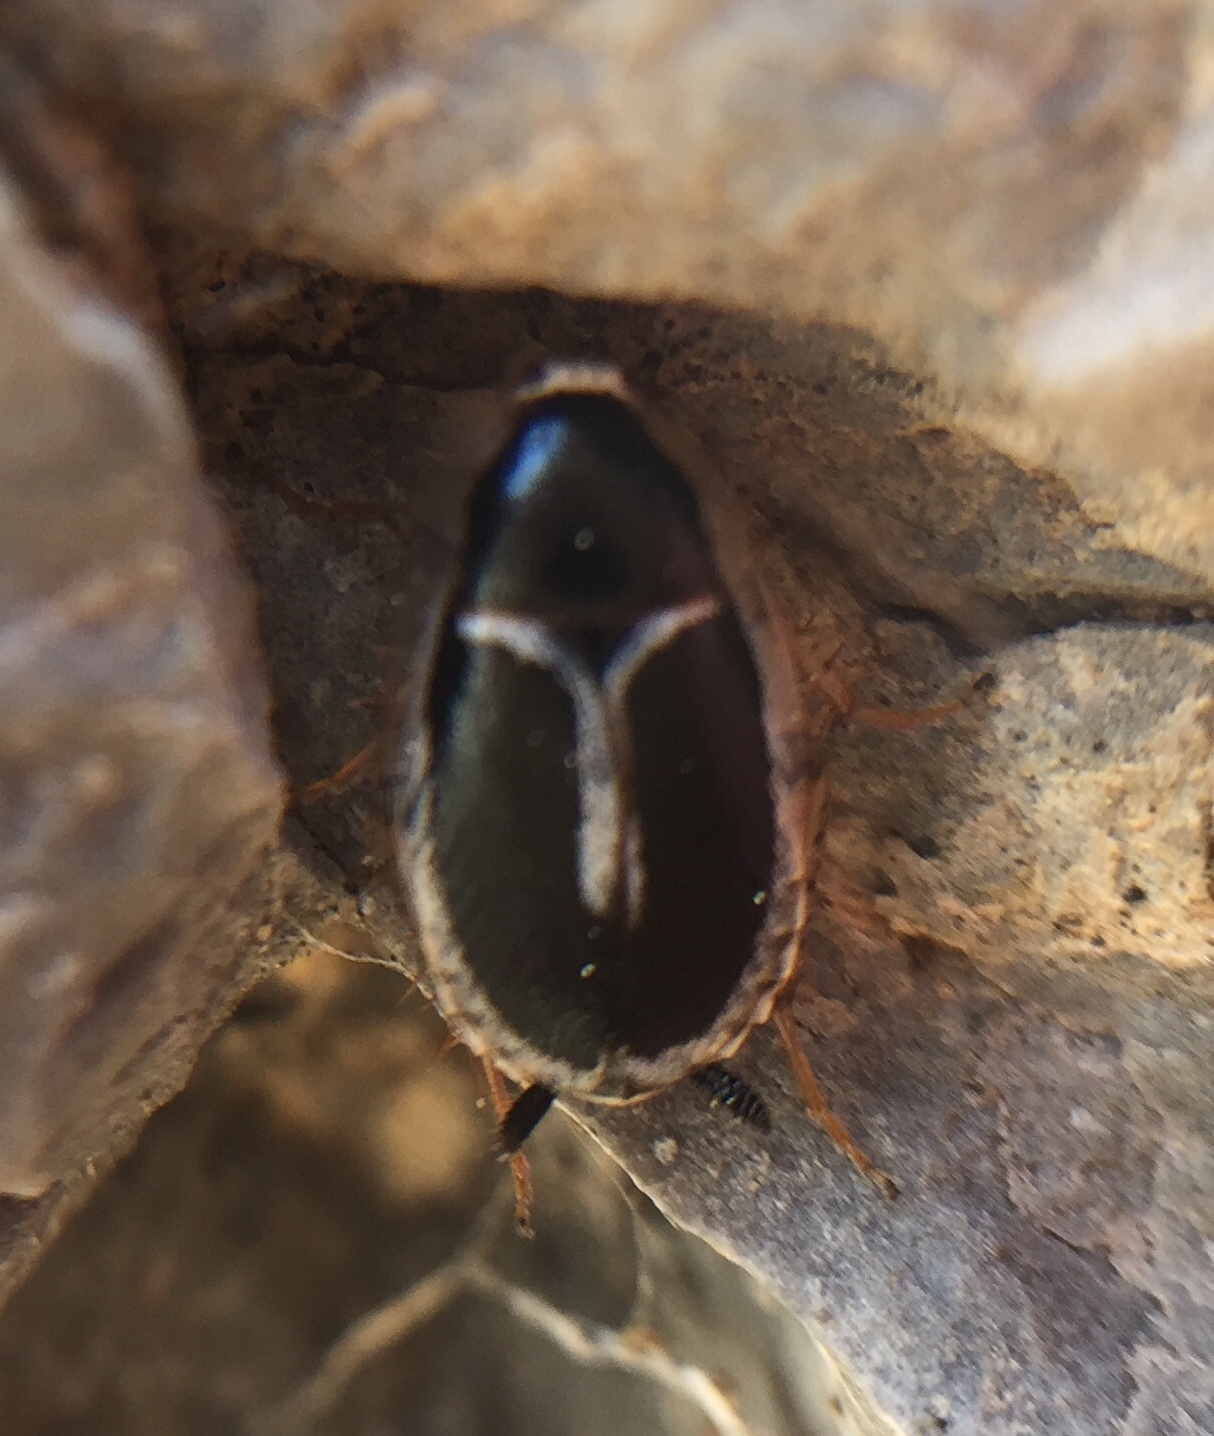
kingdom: Animalia
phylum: Arthropoda
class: Insecta
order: Blattodea
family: Ectobiidae
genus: Phyllodromica
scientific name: Phyllodromica marginata
